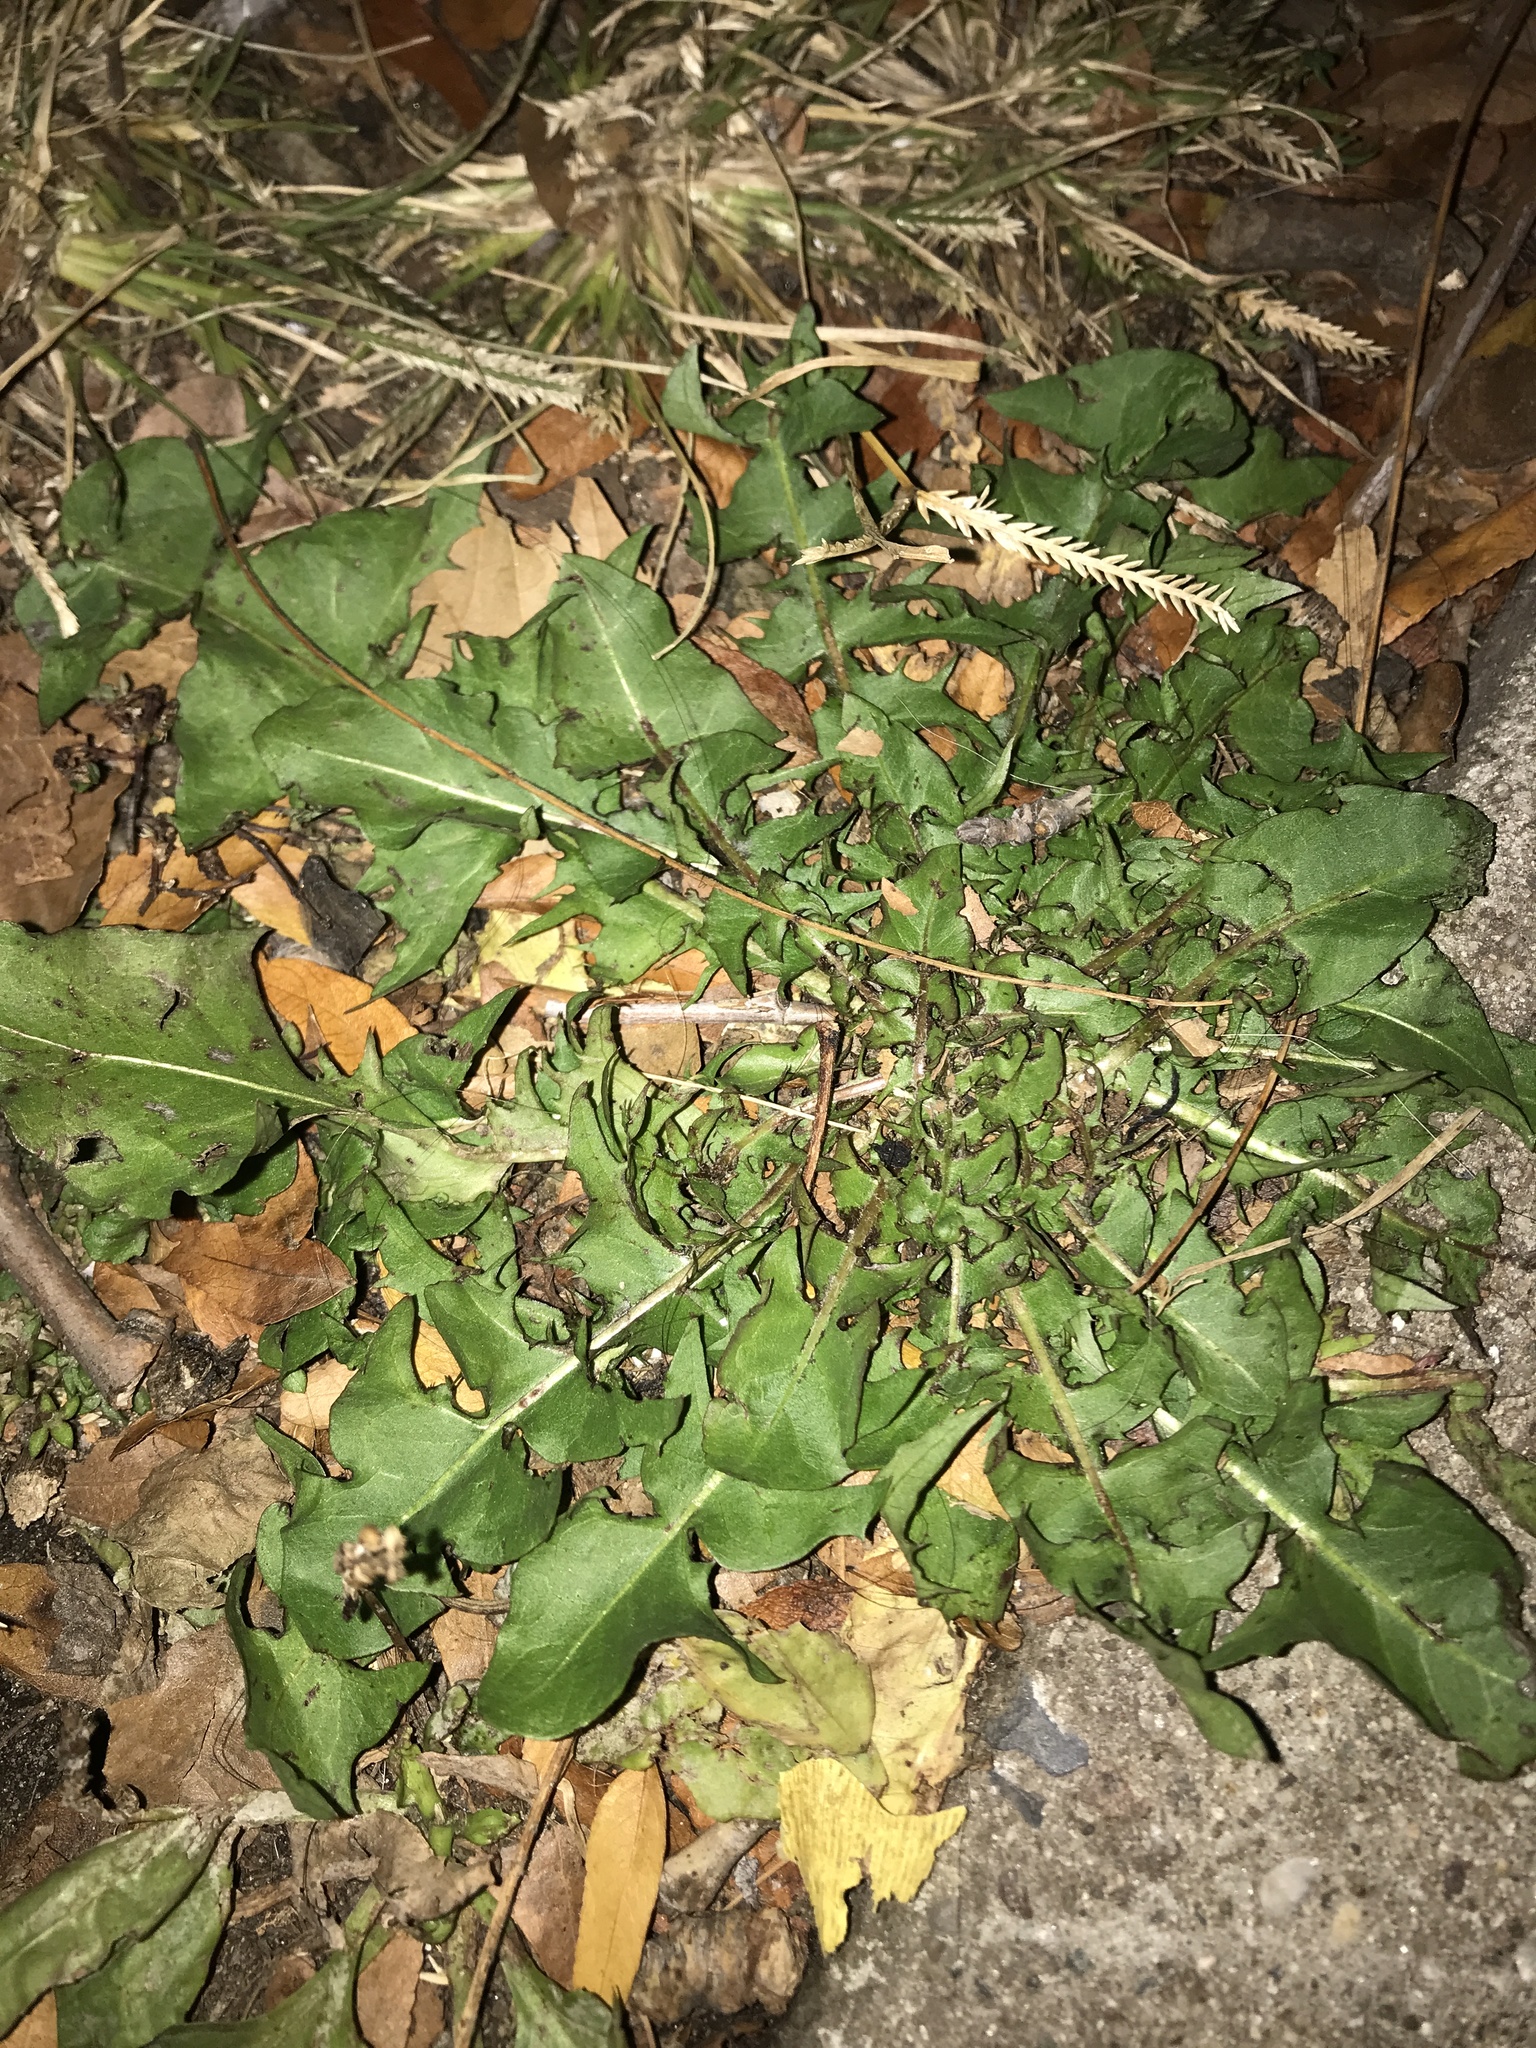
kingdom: Plantae
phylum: Tracheophyta
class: Magnoliopsida
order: Asterales
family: Asteraceae
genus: Taraxacum
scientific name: Taraxacum officinale
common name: Common dandelion
